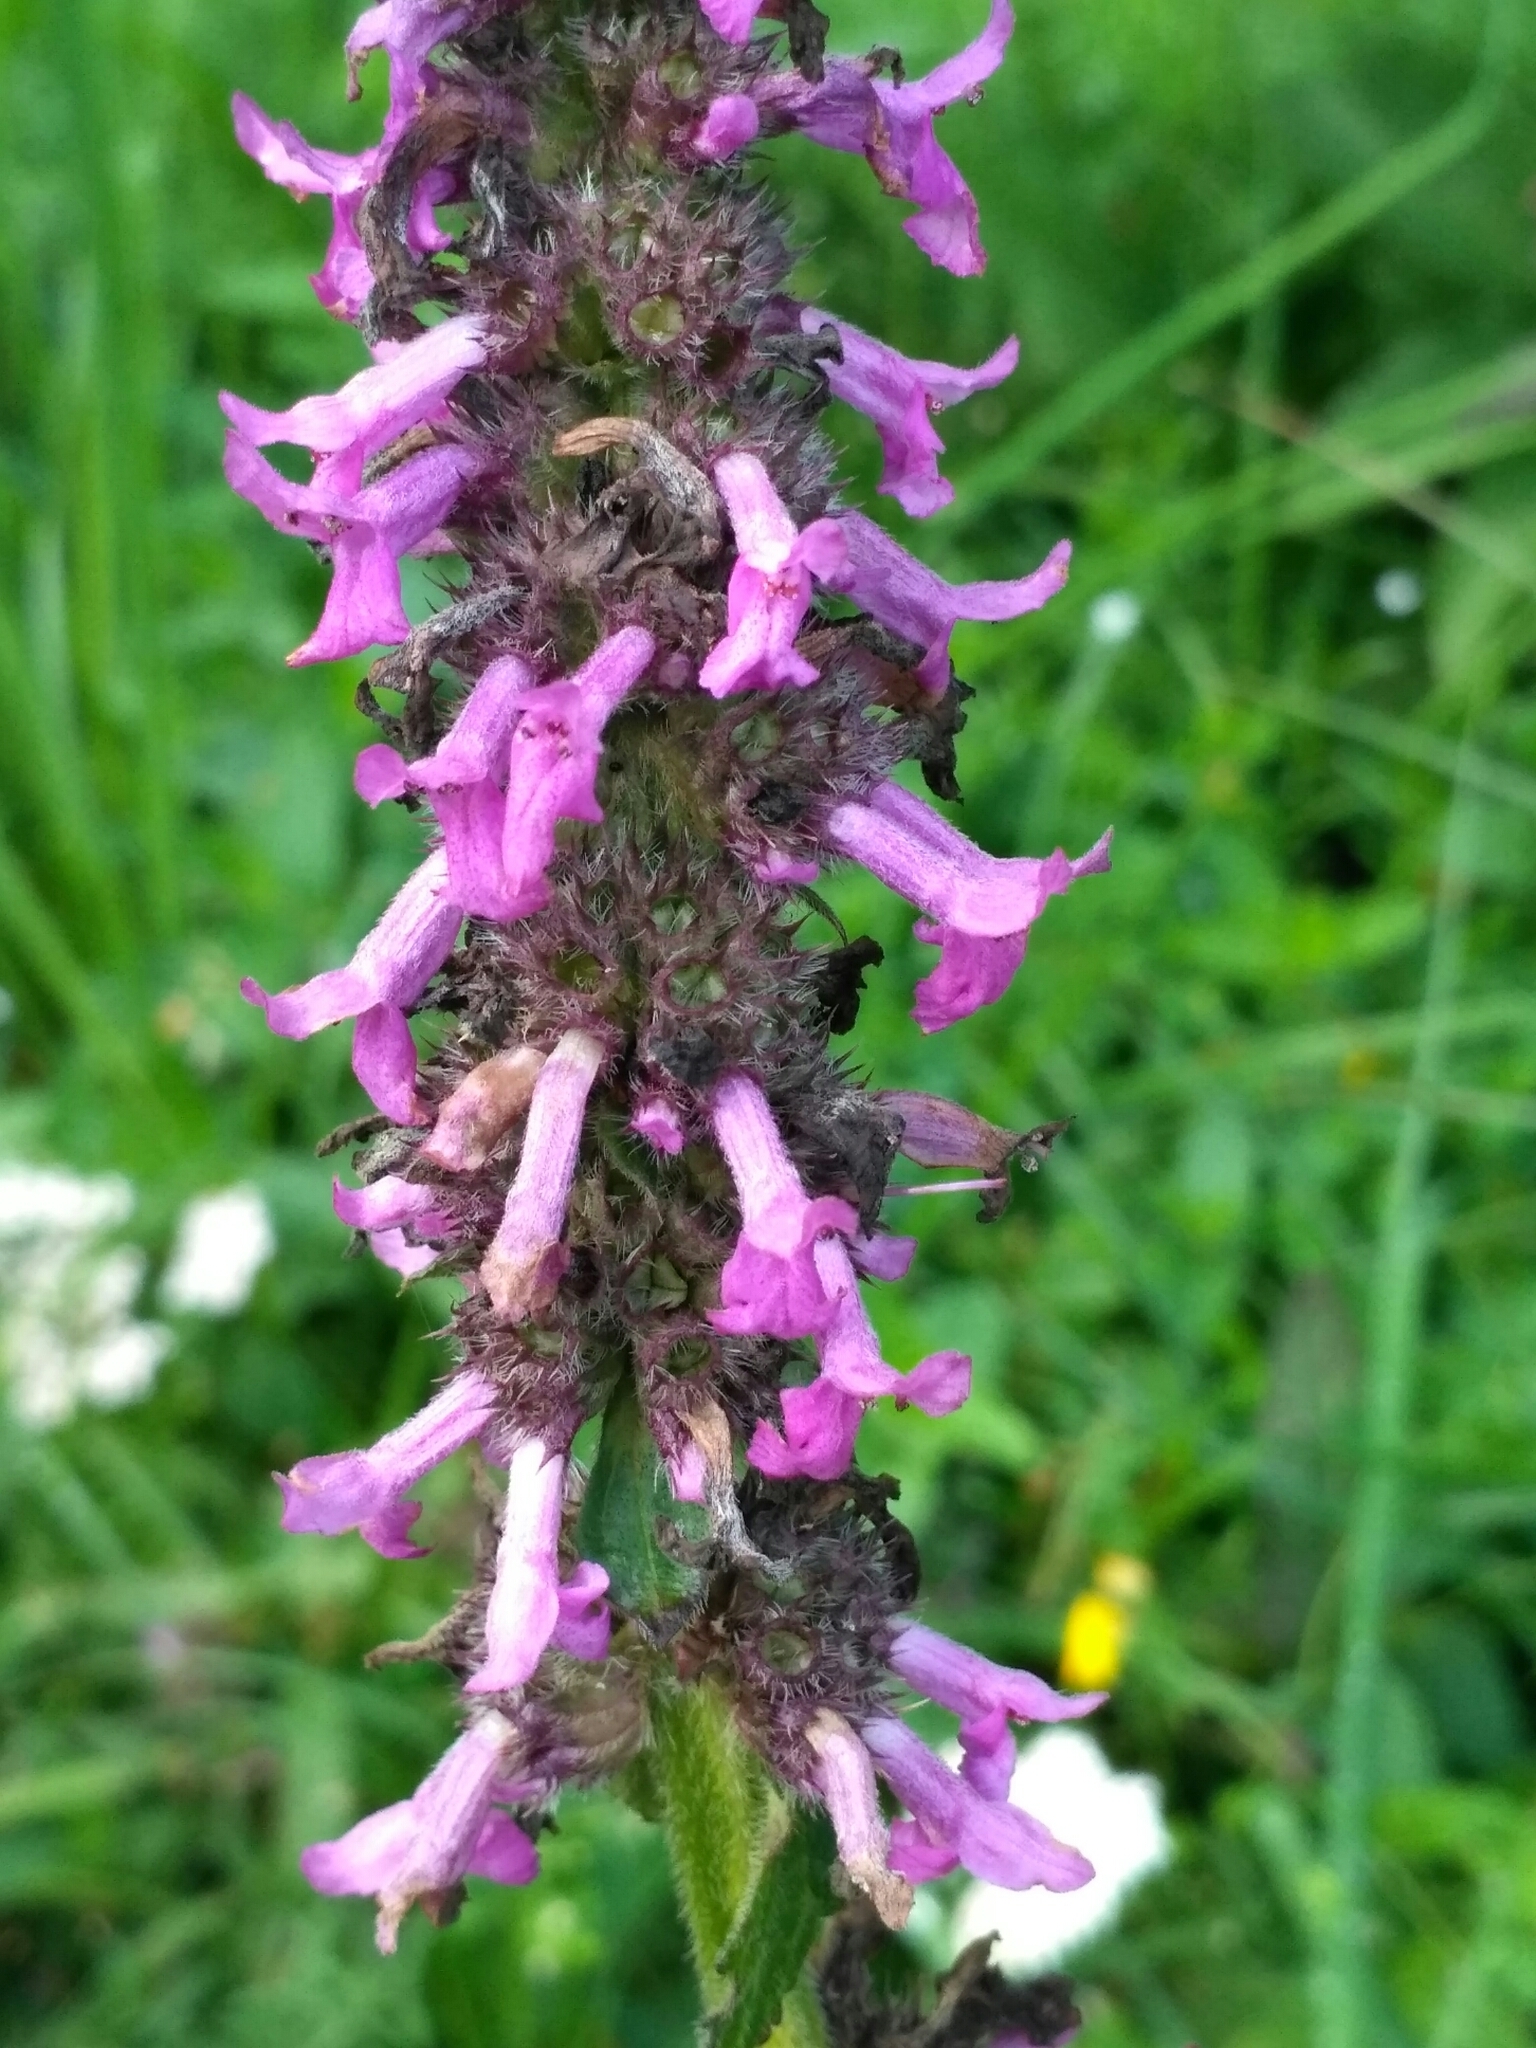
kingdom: Plantae
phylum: Tracheophyta
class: Magnoliopsida
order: Lamiales
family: Lamiaceae
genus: Betonica
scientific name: Betonica officinalis
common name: Bishop's-wort
